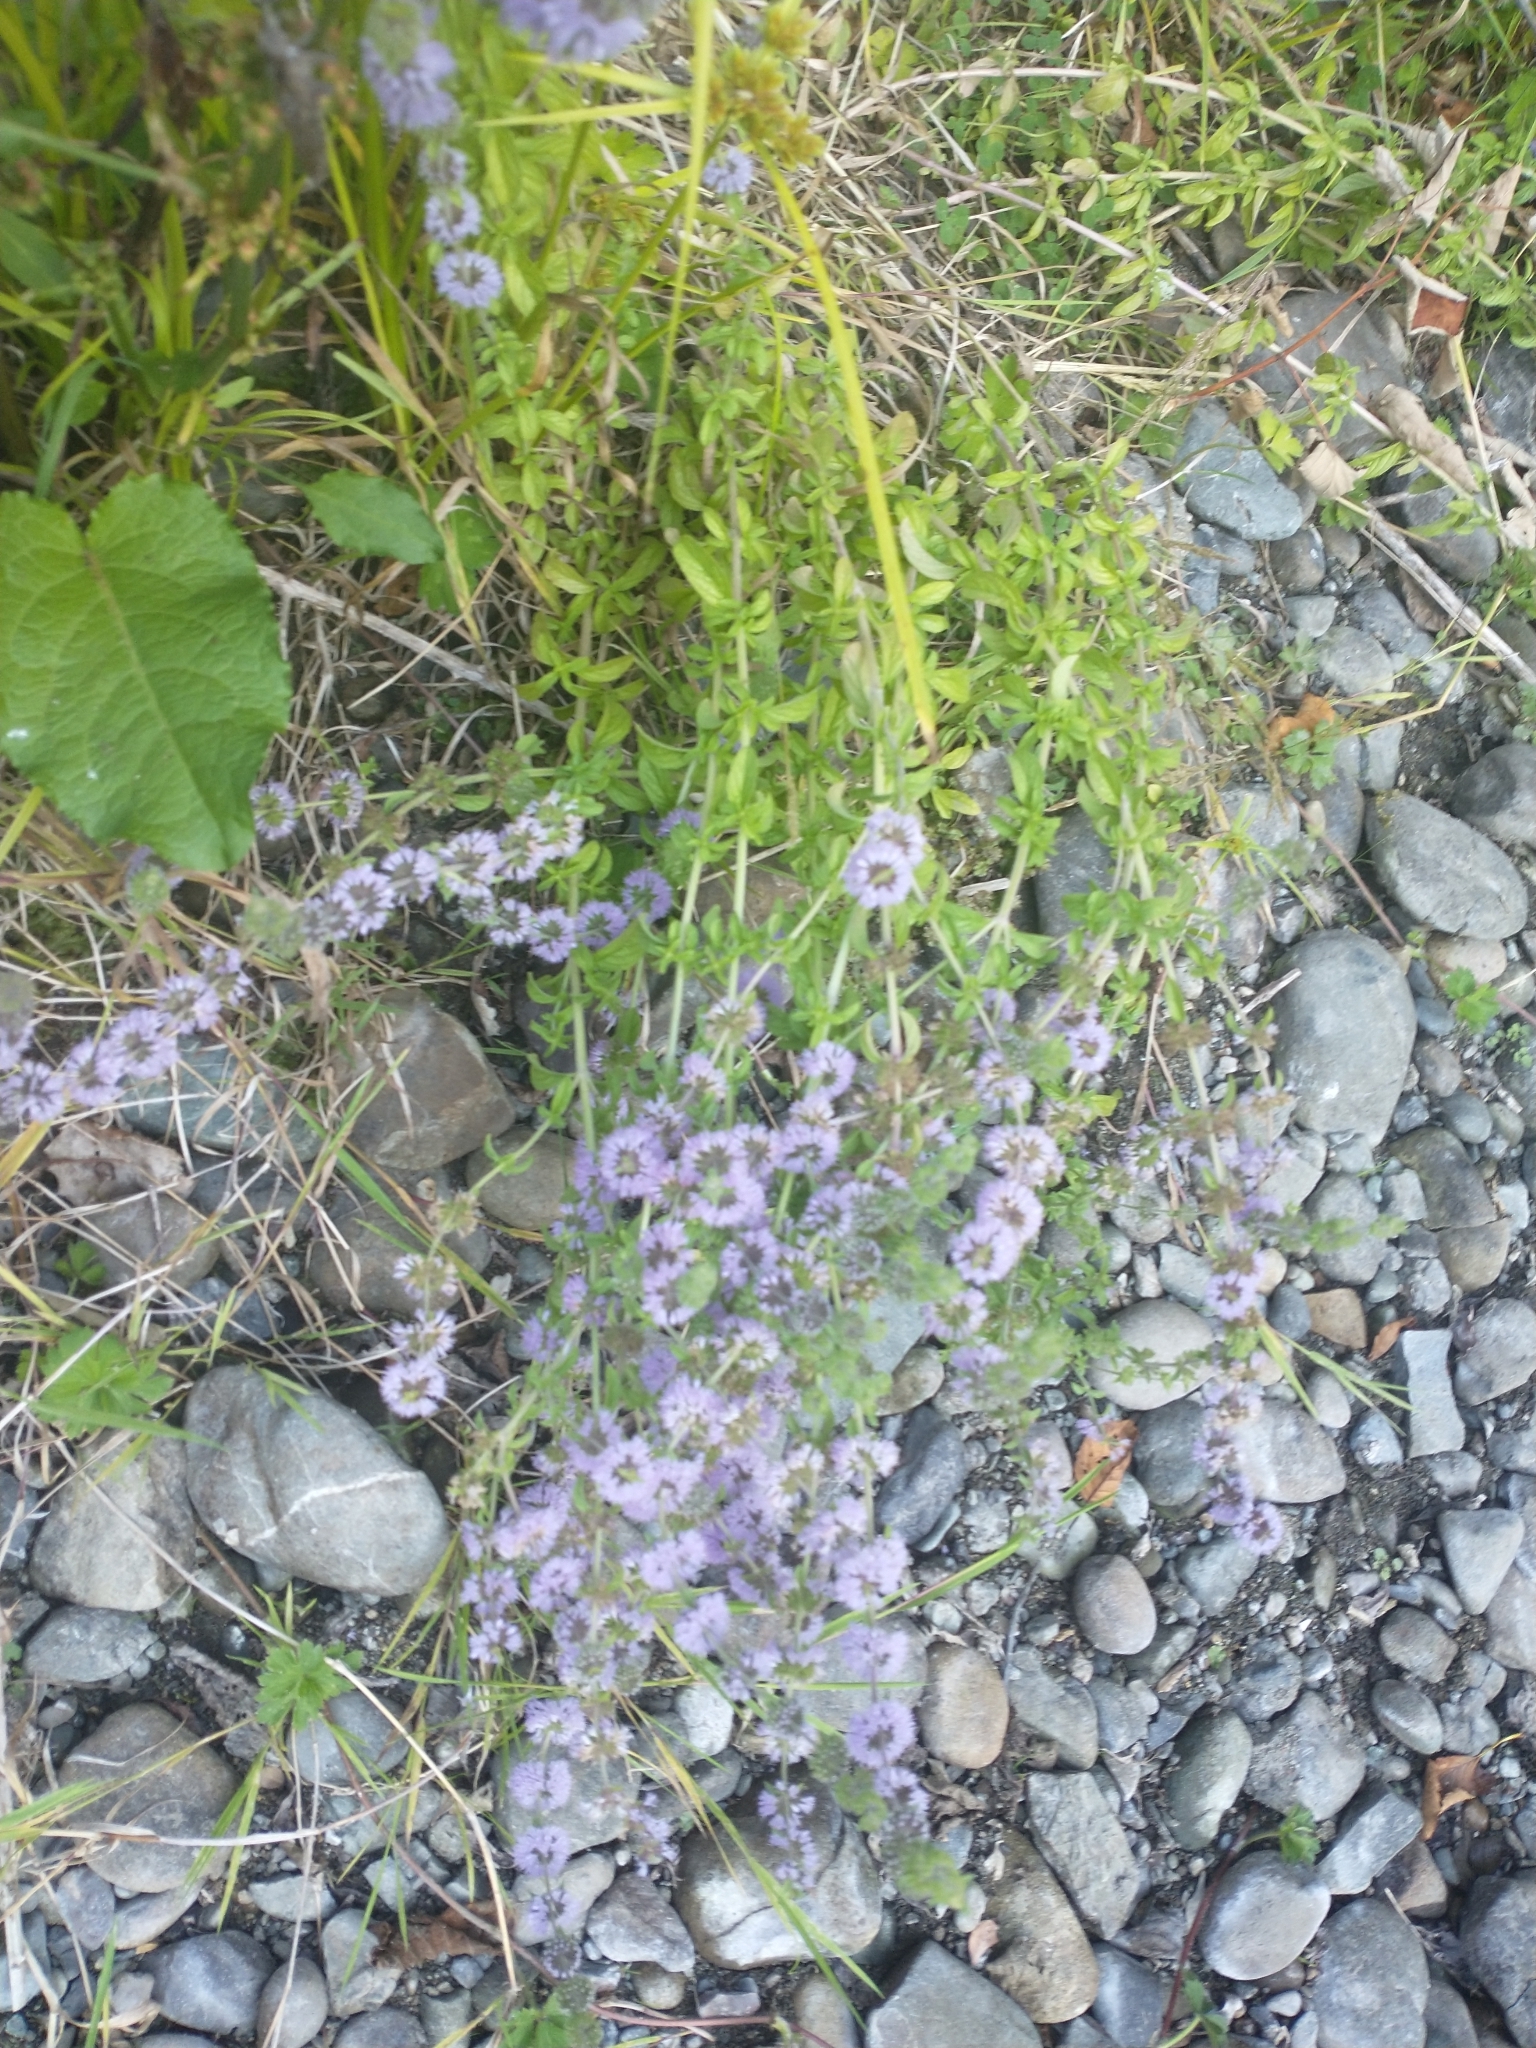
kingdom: Plantae
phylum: Tracheophyta
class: Magnoliopsida
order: Lamiales
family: Lamiaceae
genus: Mentha
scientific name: Mentha pulegium
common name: Pennyroyal
